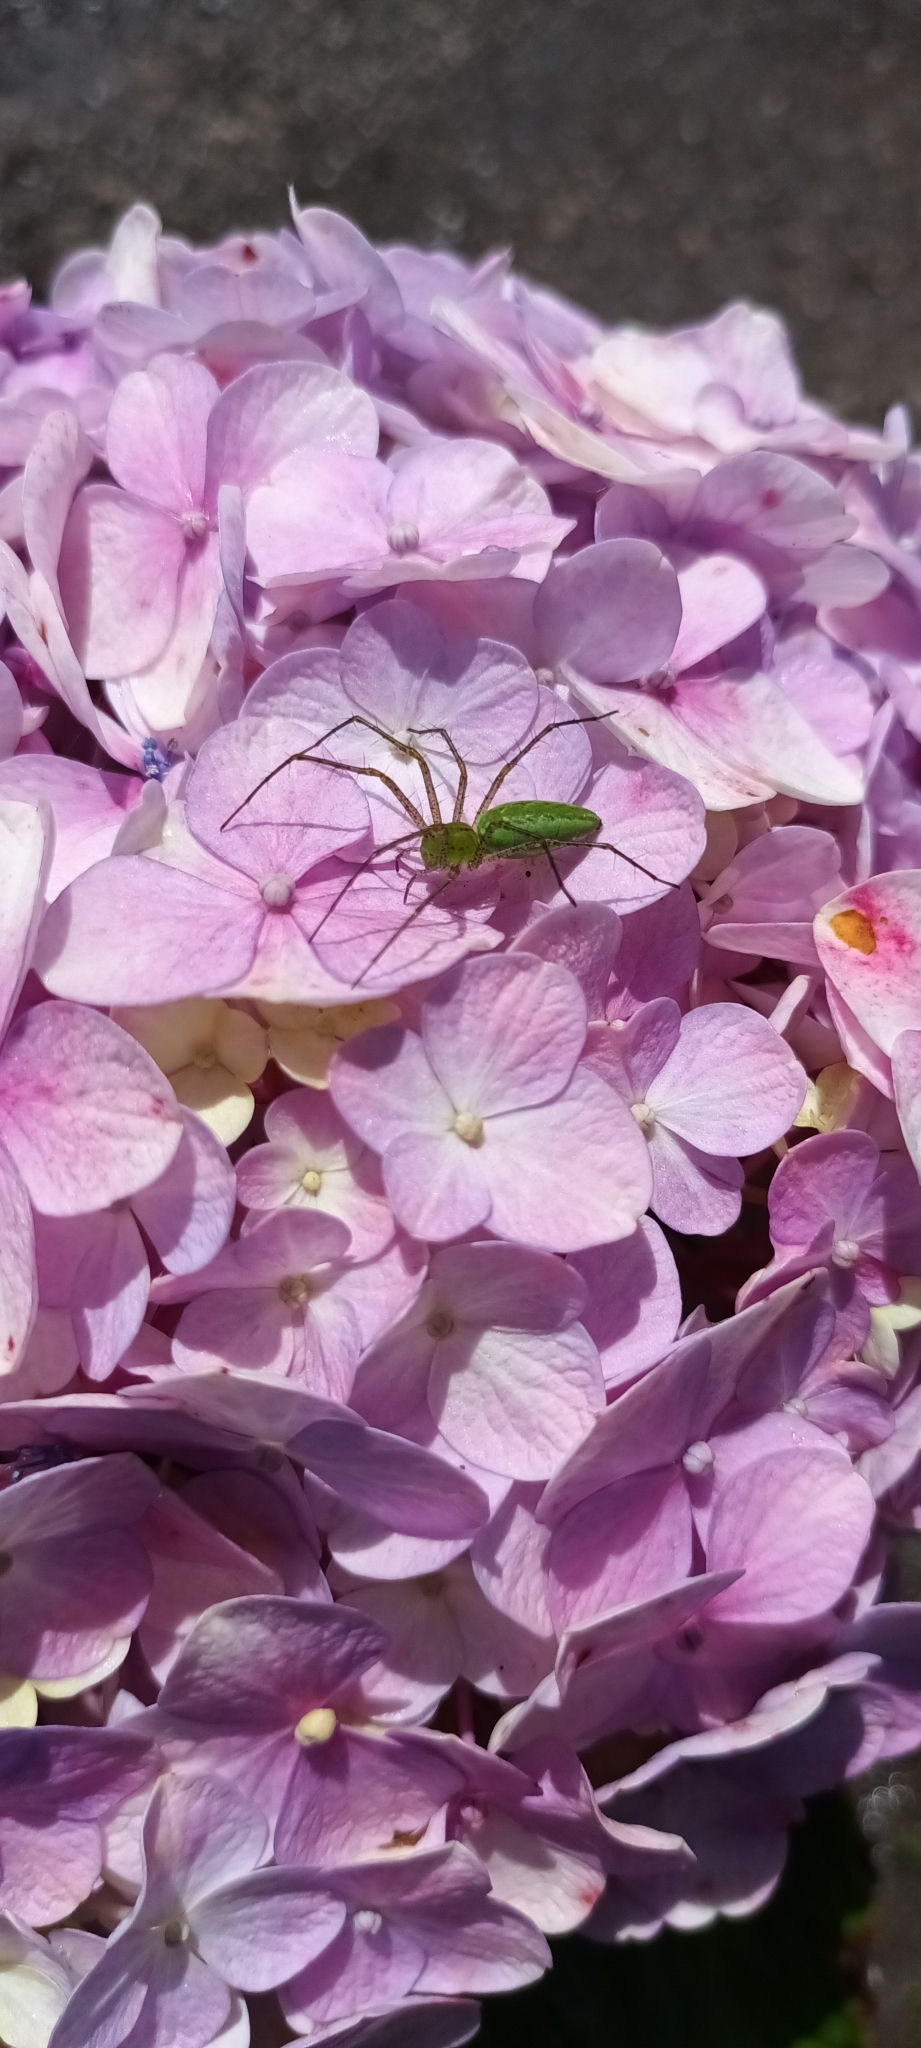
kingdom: Animalia
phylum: Arthropoda
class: Arachnida
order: Araneae
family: Oxyopidae
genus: Peucetia
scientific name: Peucetia viridans
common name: Lynx spiders
